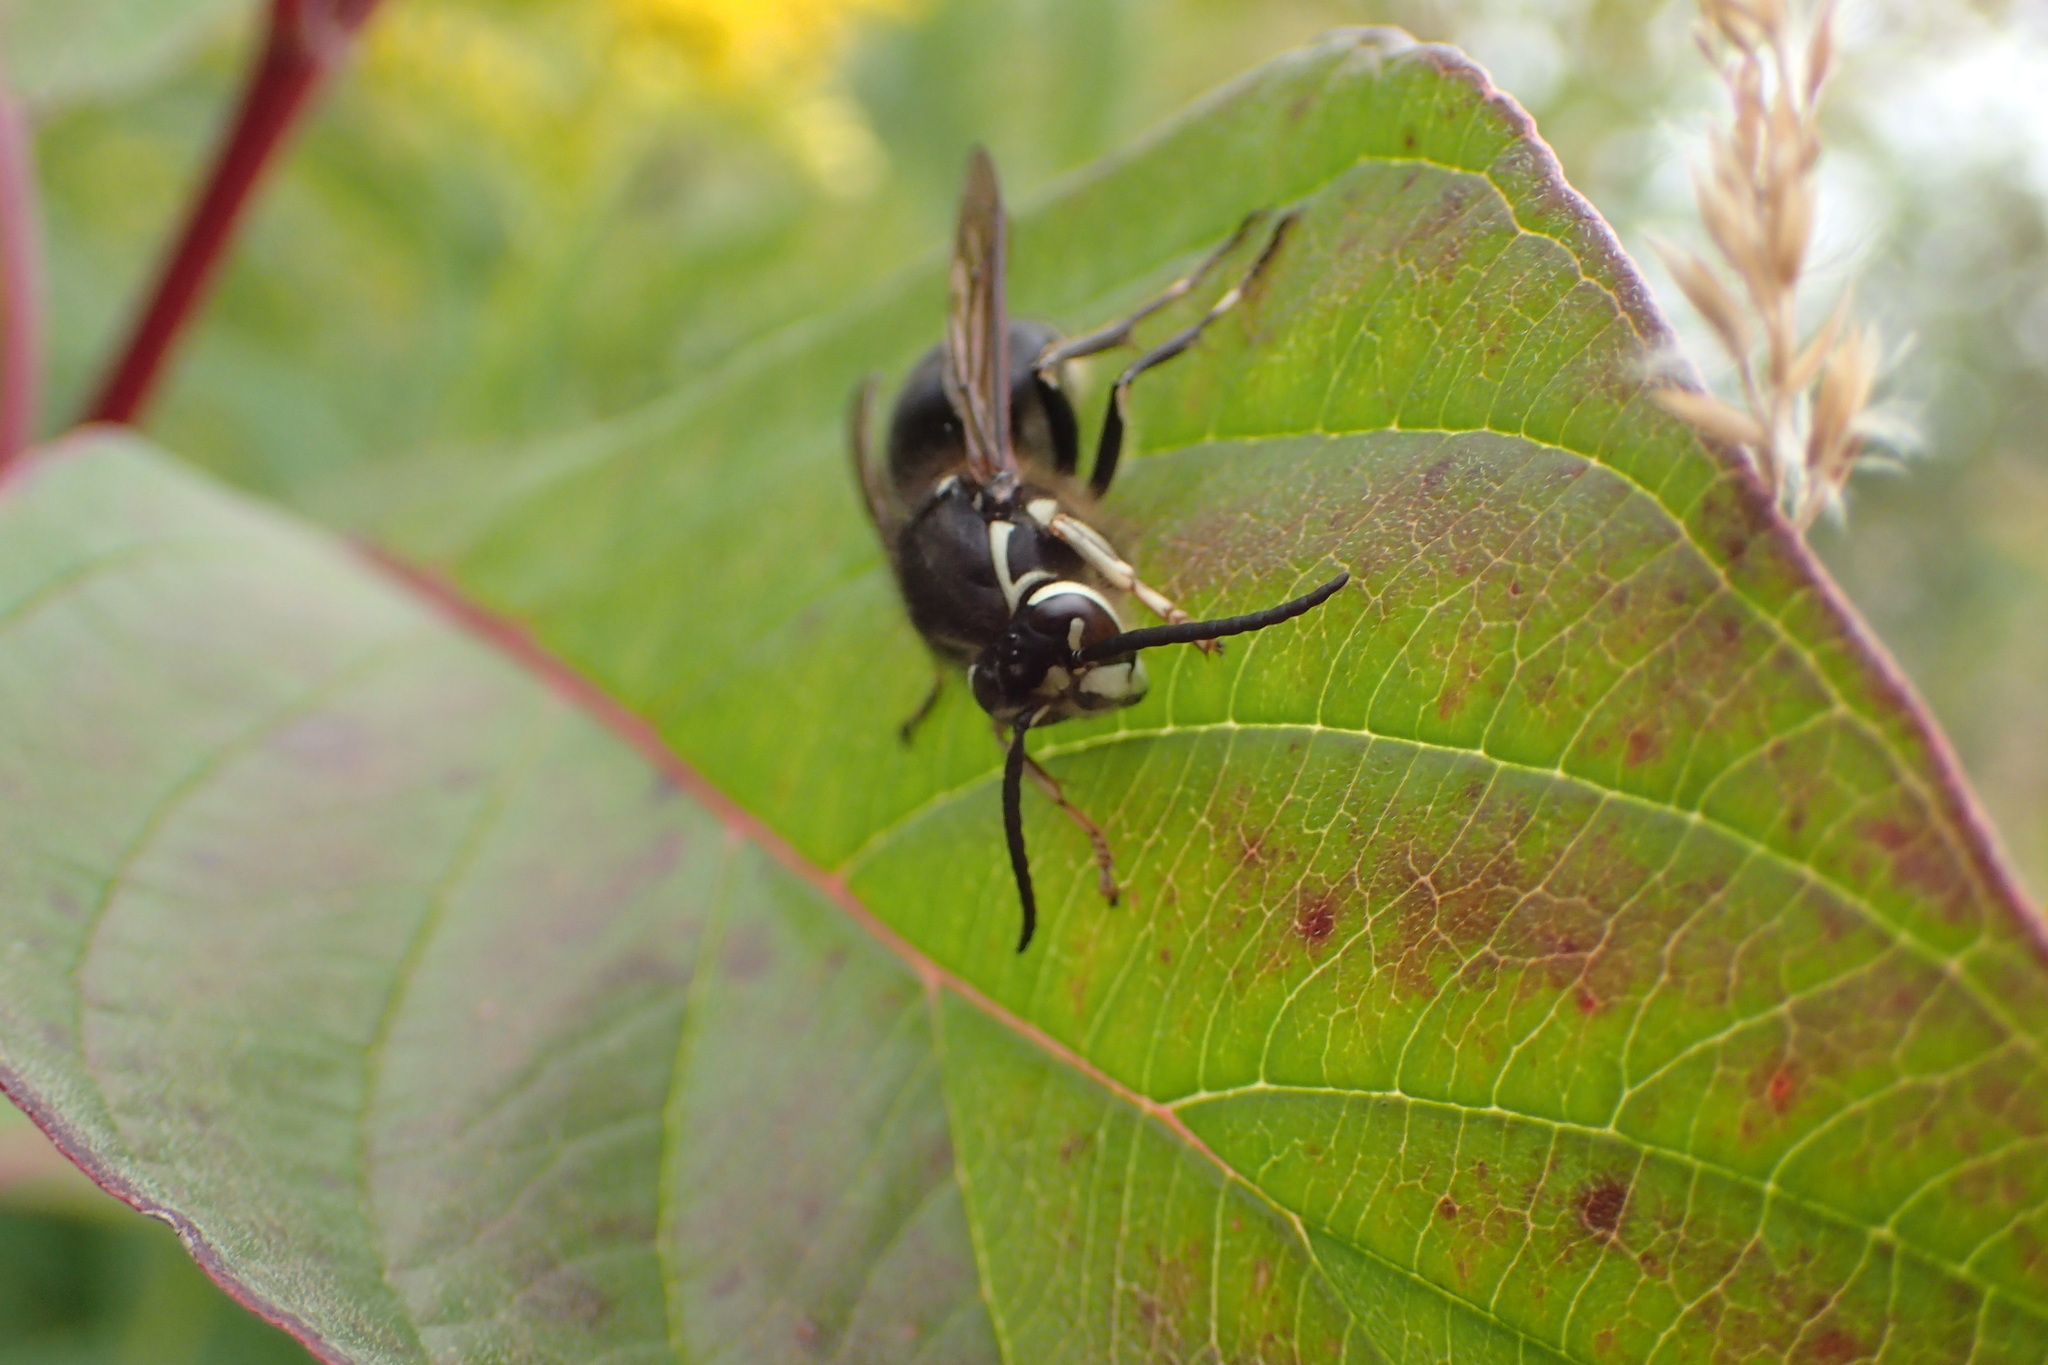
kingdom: Animalia
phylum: Arthropoda
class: Insecta
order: Hymenoptera
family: Vespidae
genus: Dolichovespula
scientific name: Dolichovespula maculata
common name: Bald-faced hornet
